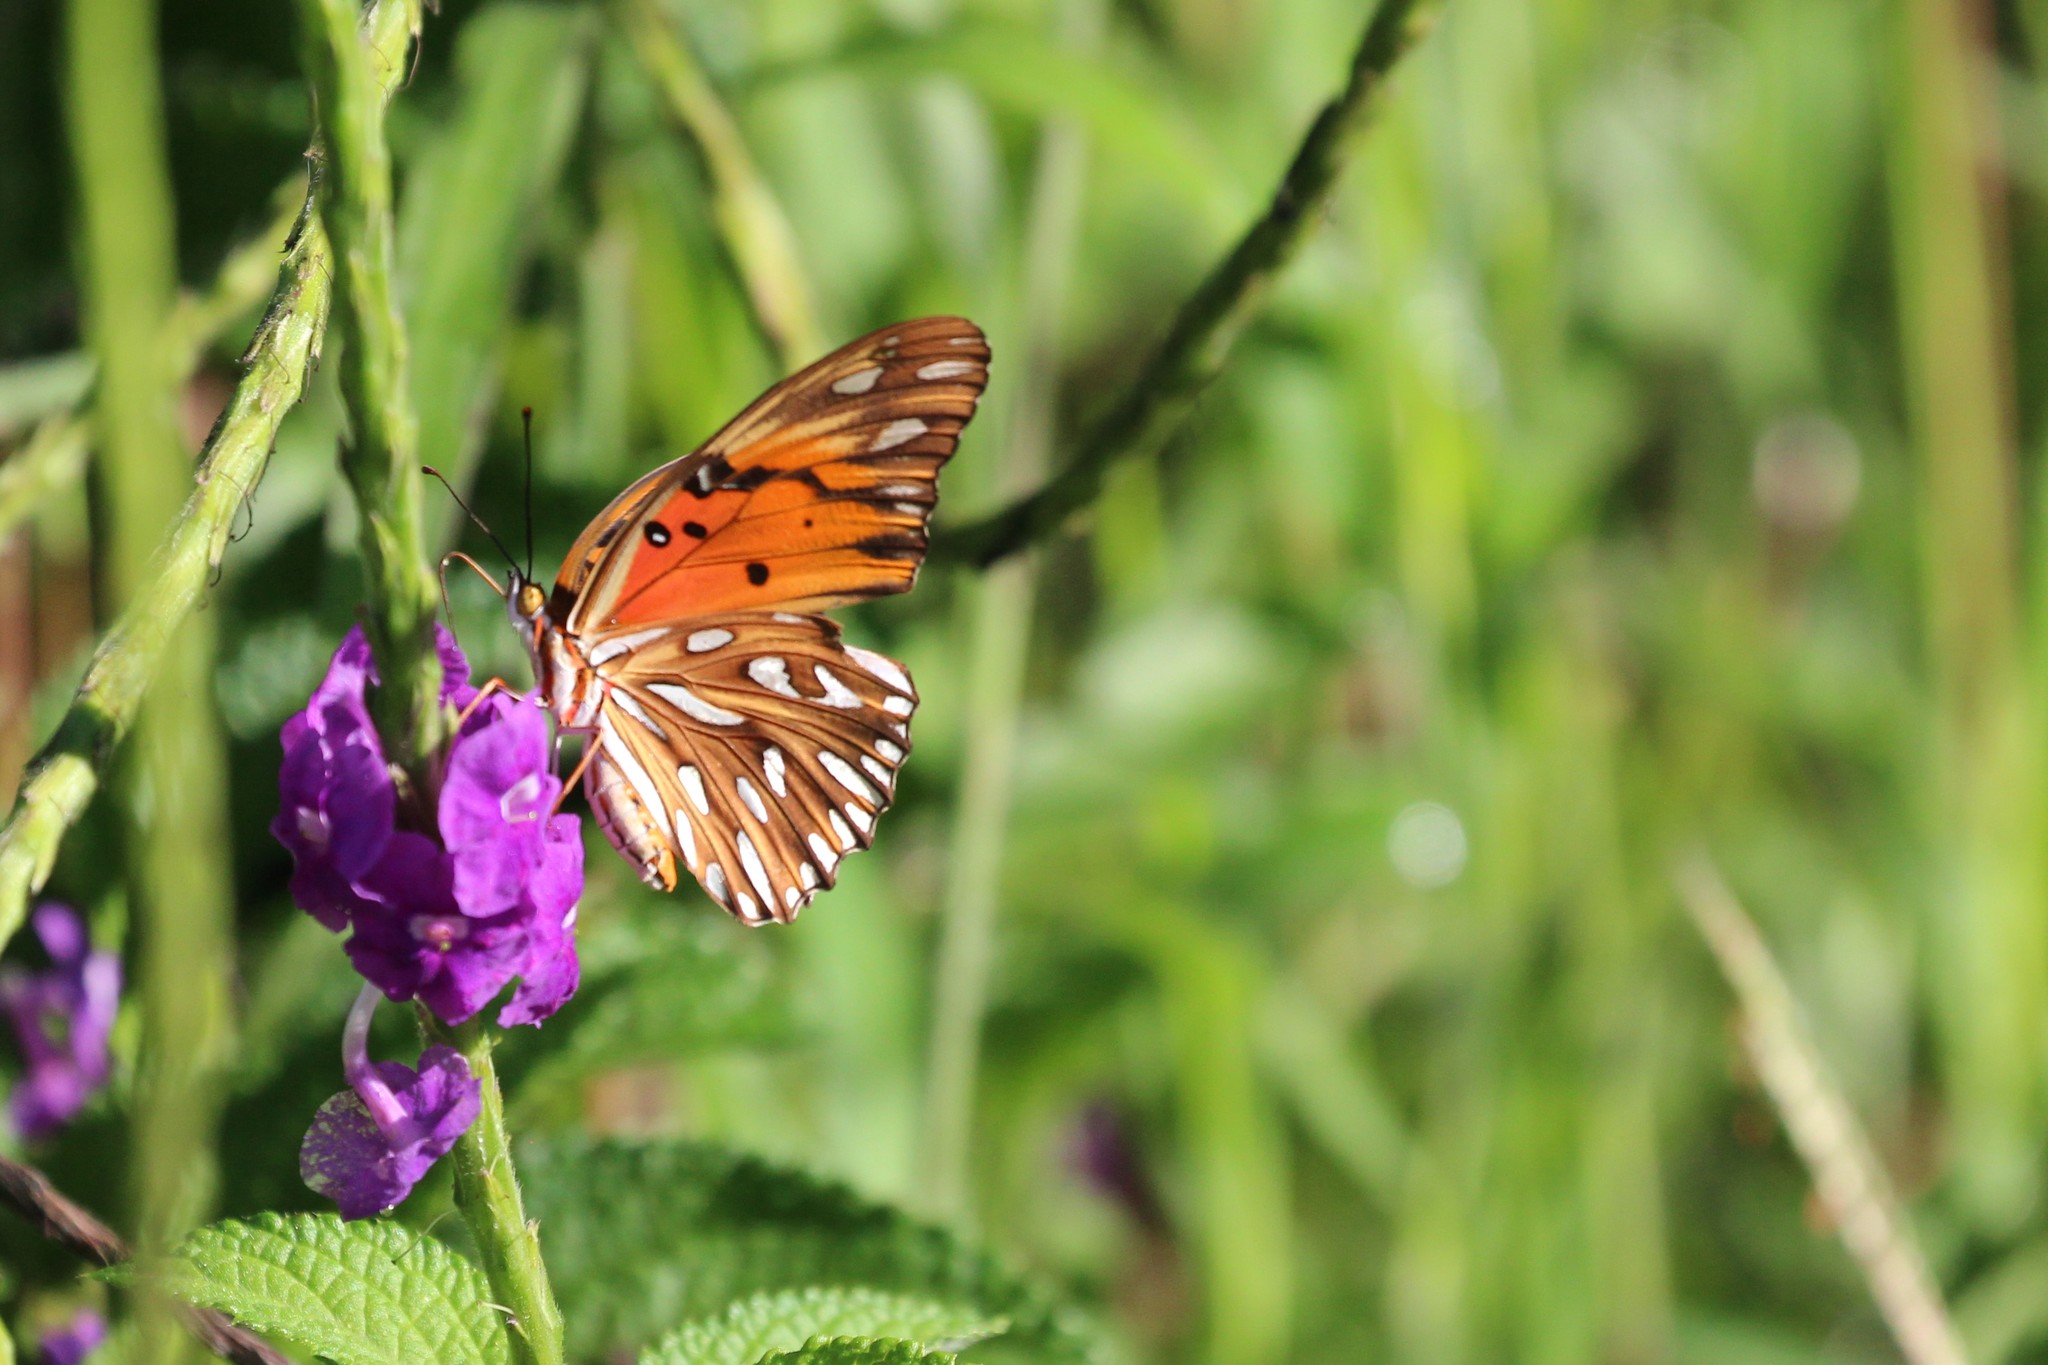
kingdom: Animalia
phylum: Arthropoda
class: Insecta
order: Lepidoptera
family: Nymphalidae
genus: Dione
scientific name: Dione vanillae
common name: Gulf fritillary
